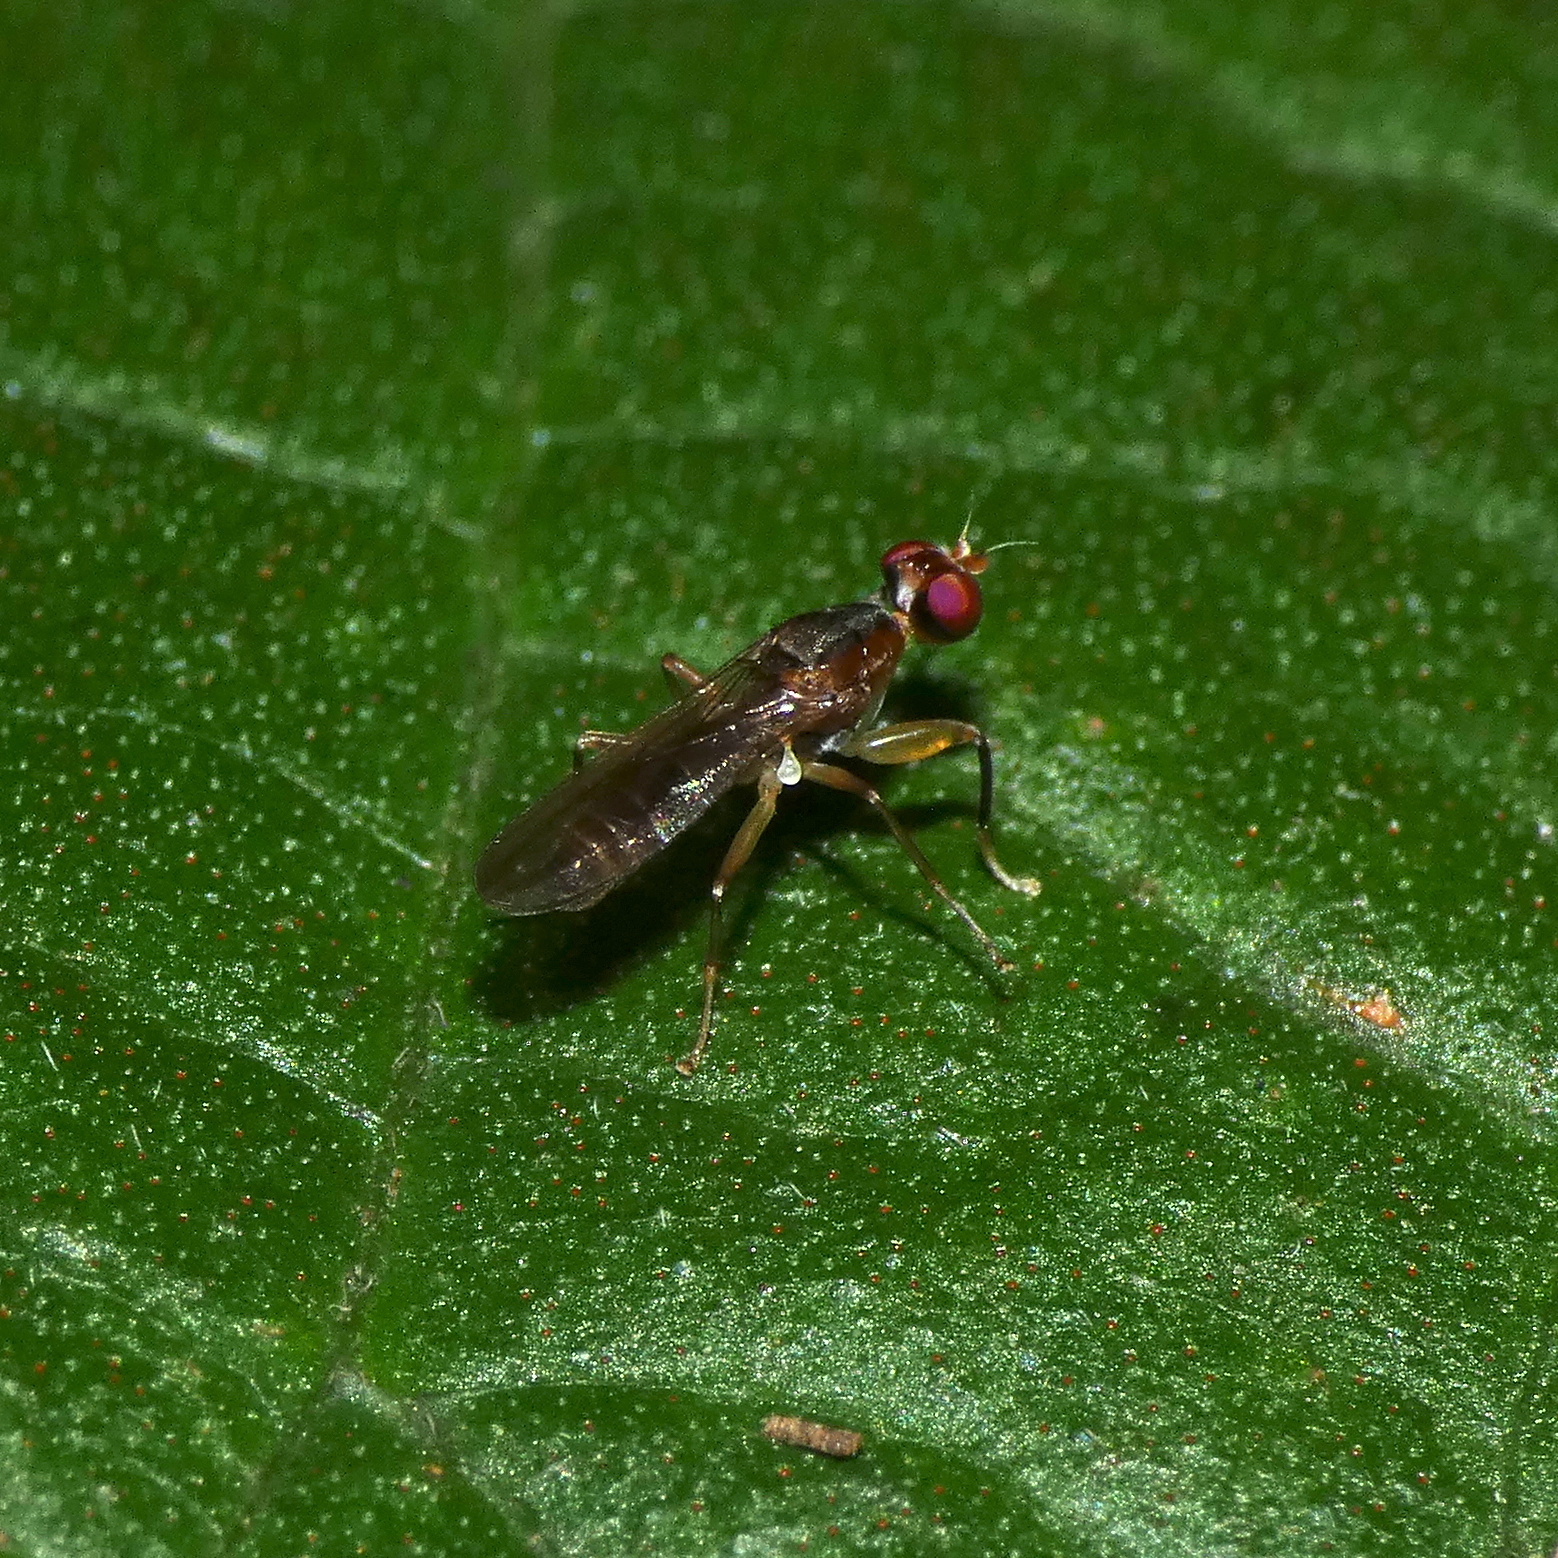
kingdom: Animalia
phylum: Arthropoda
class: Insecta
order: Diptera
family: Diopsidae
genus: Teloglabrus
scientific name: Teloglabrus vumbensis
